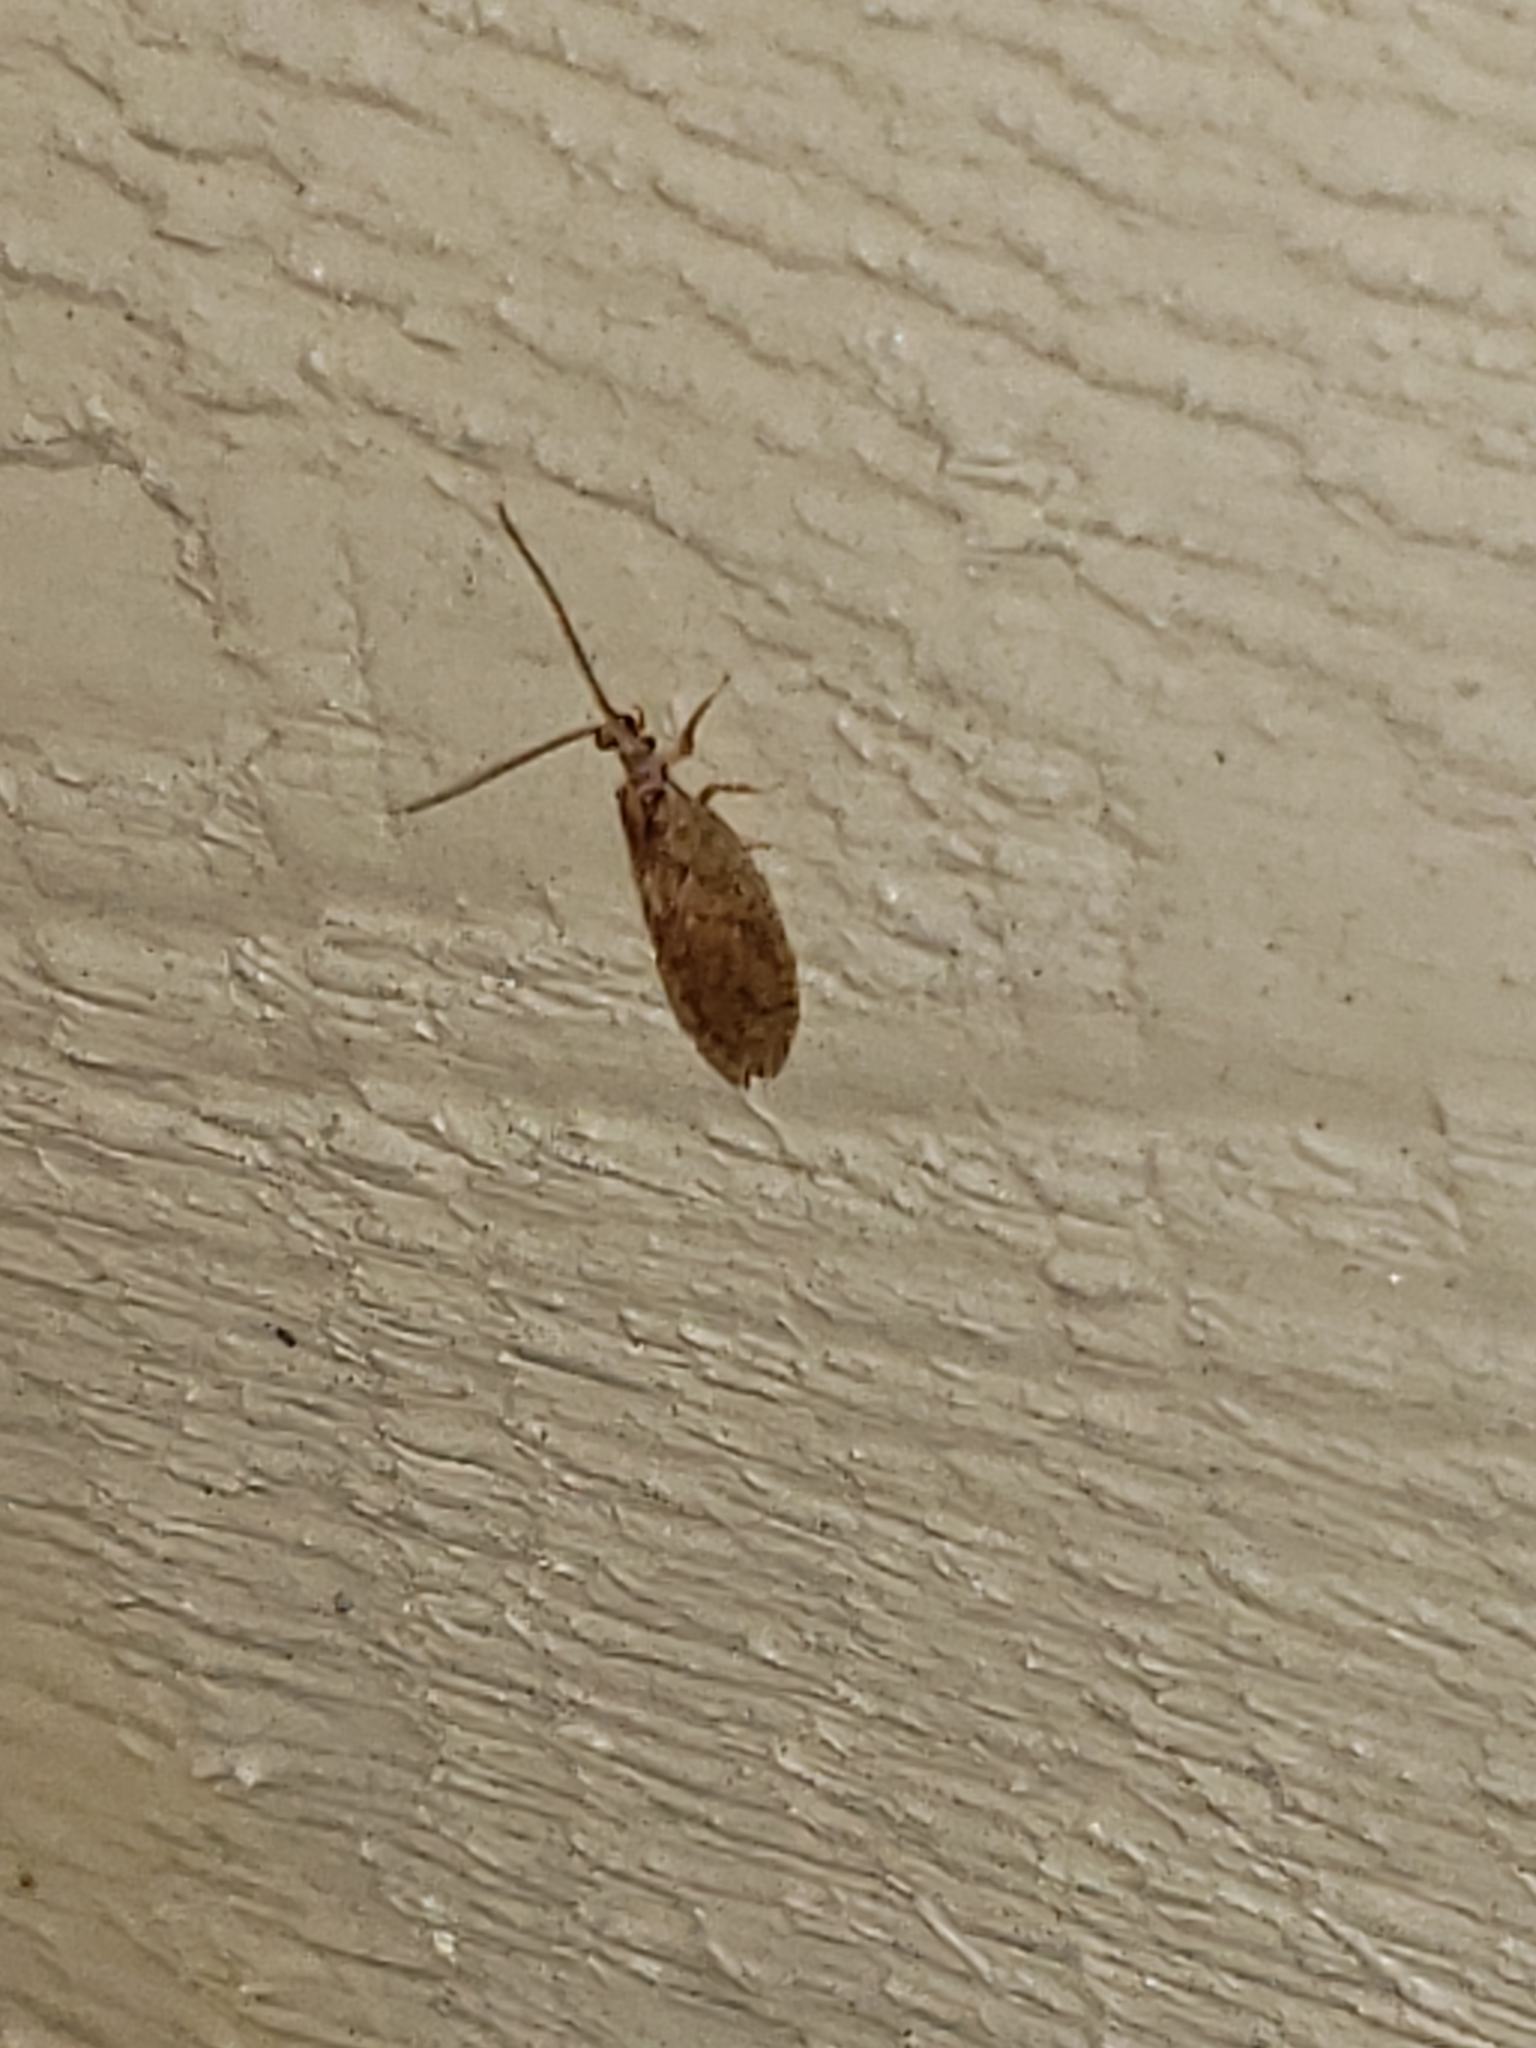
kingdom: Animalia
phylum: Arthropoda
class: Insecta
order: Neuroptera
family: Hemerobiidae
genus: Micromus
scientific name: Micromus posticus
